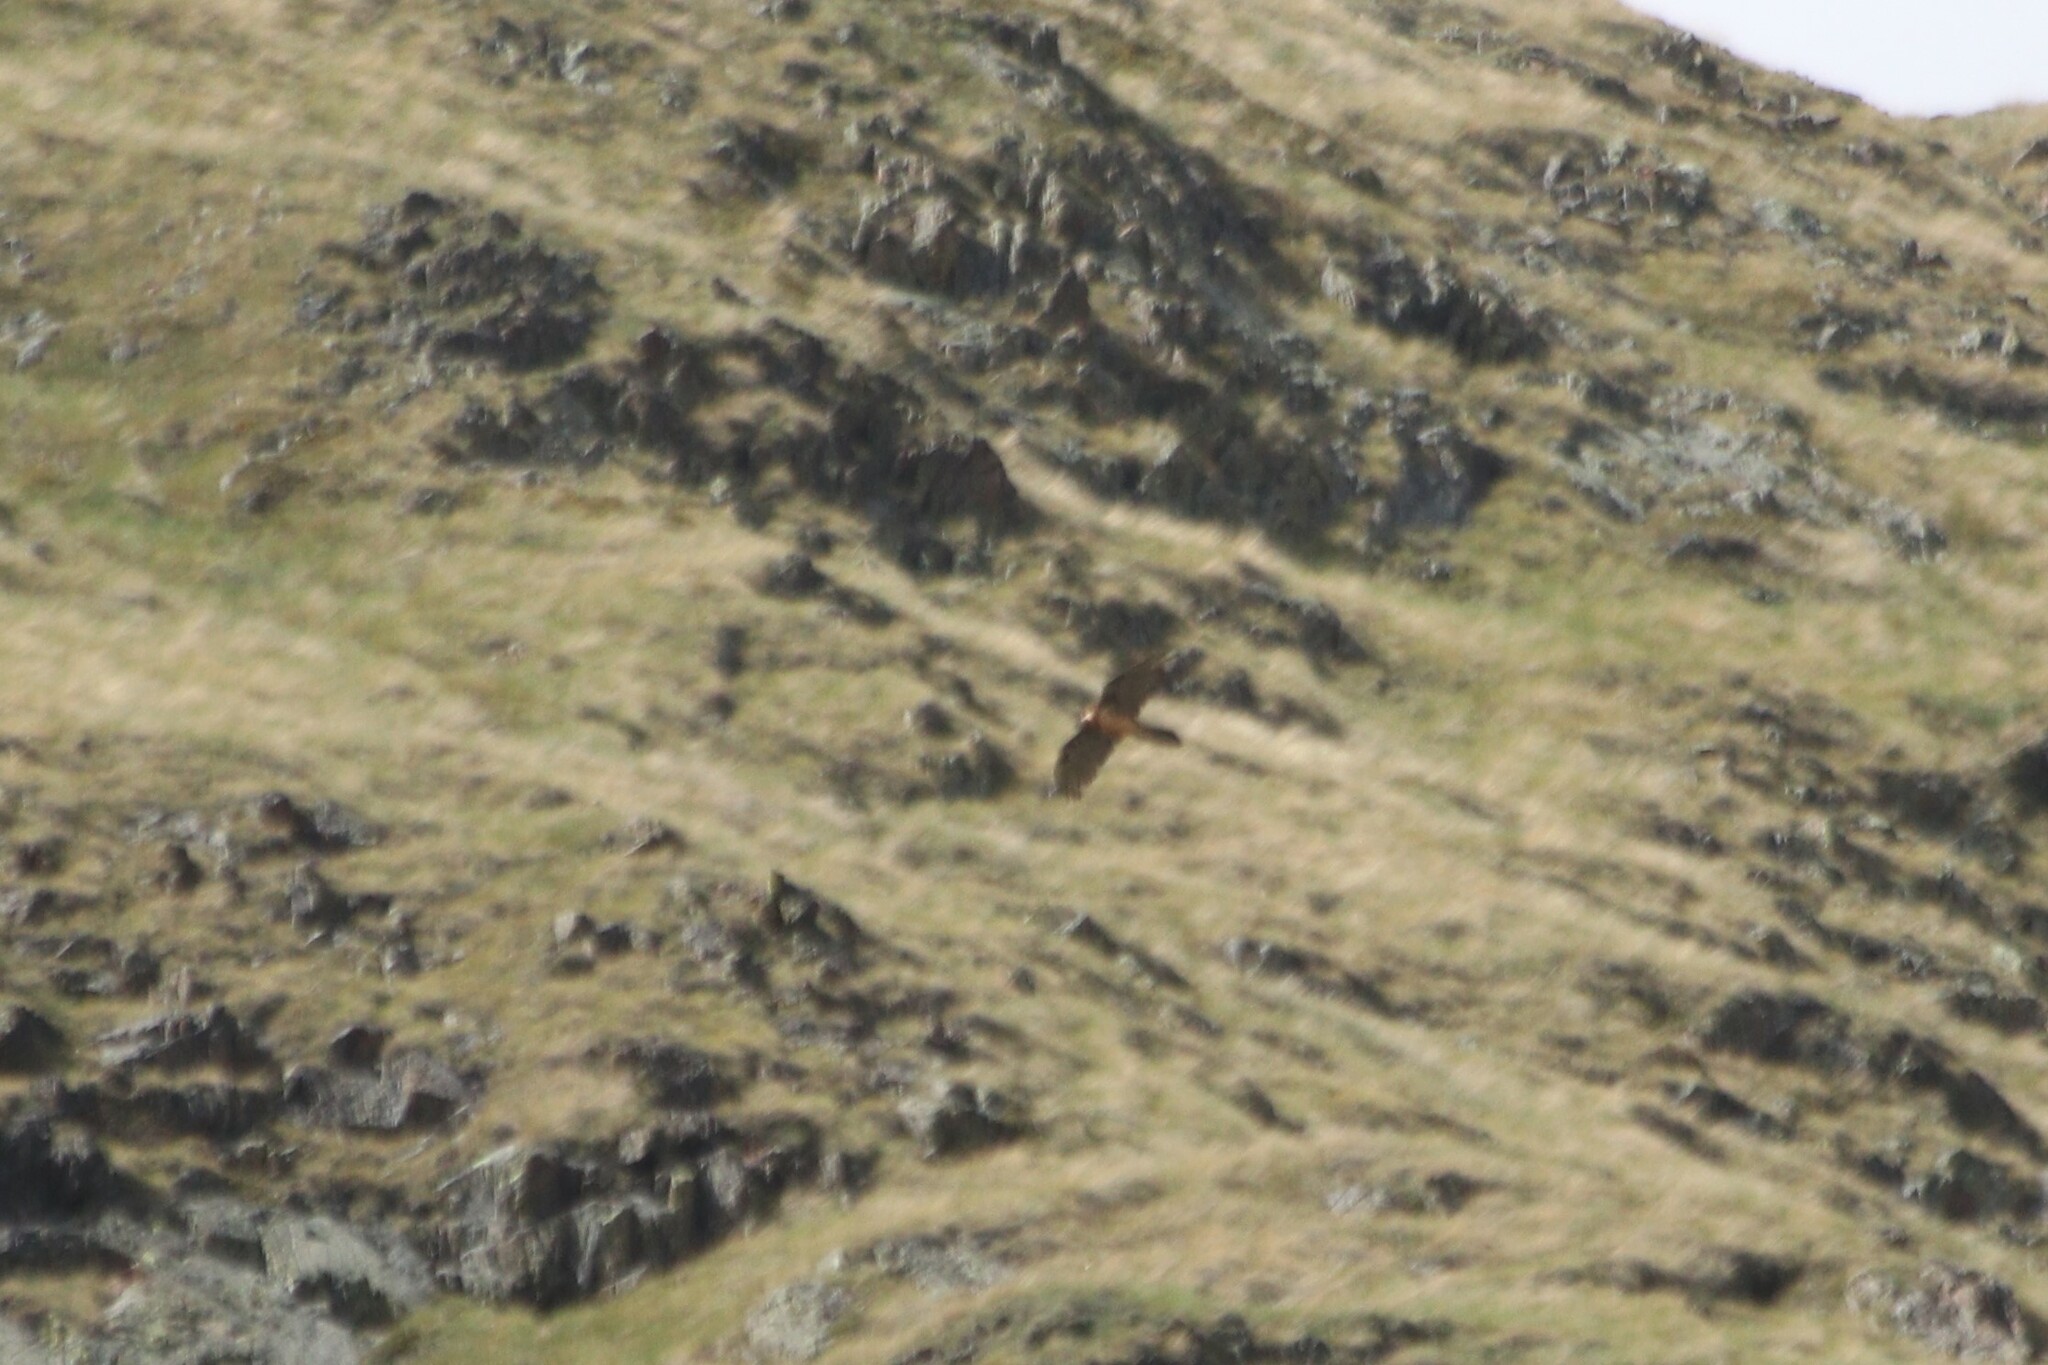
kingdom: Animalia
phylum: Chordata
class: Aves
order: Accipitriformes
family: Accipitridae
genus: Gypaetus
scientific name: Gypaetus barbatus
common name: Bearded vulture
